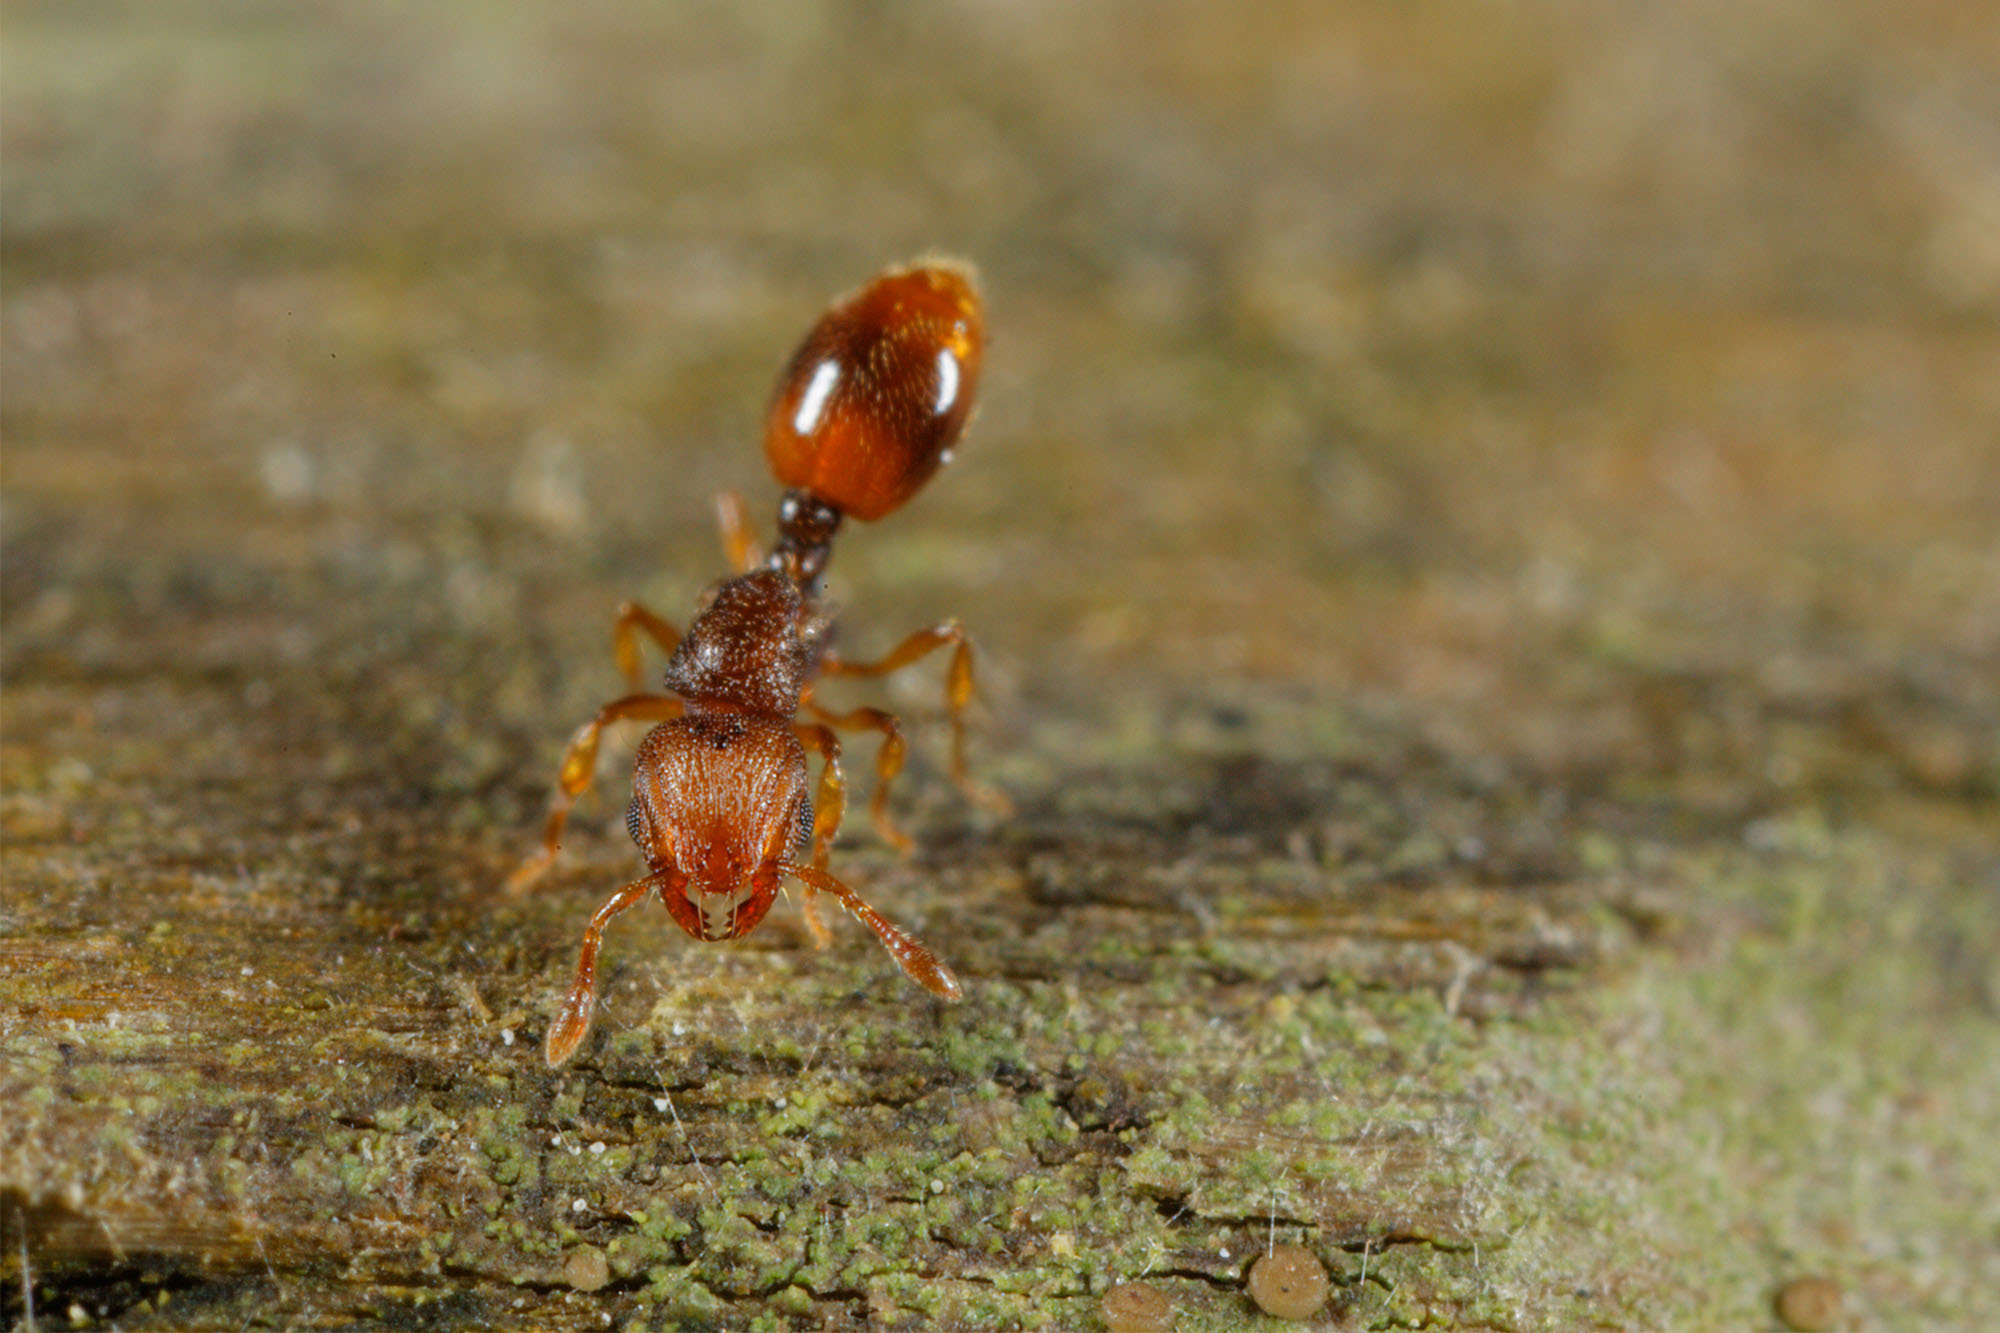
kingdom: Animalia
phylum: Arthropoda
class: Insecta
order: Hymenoptera
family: Formicidae
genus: Mayriella
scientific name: Mayriella abstinens
